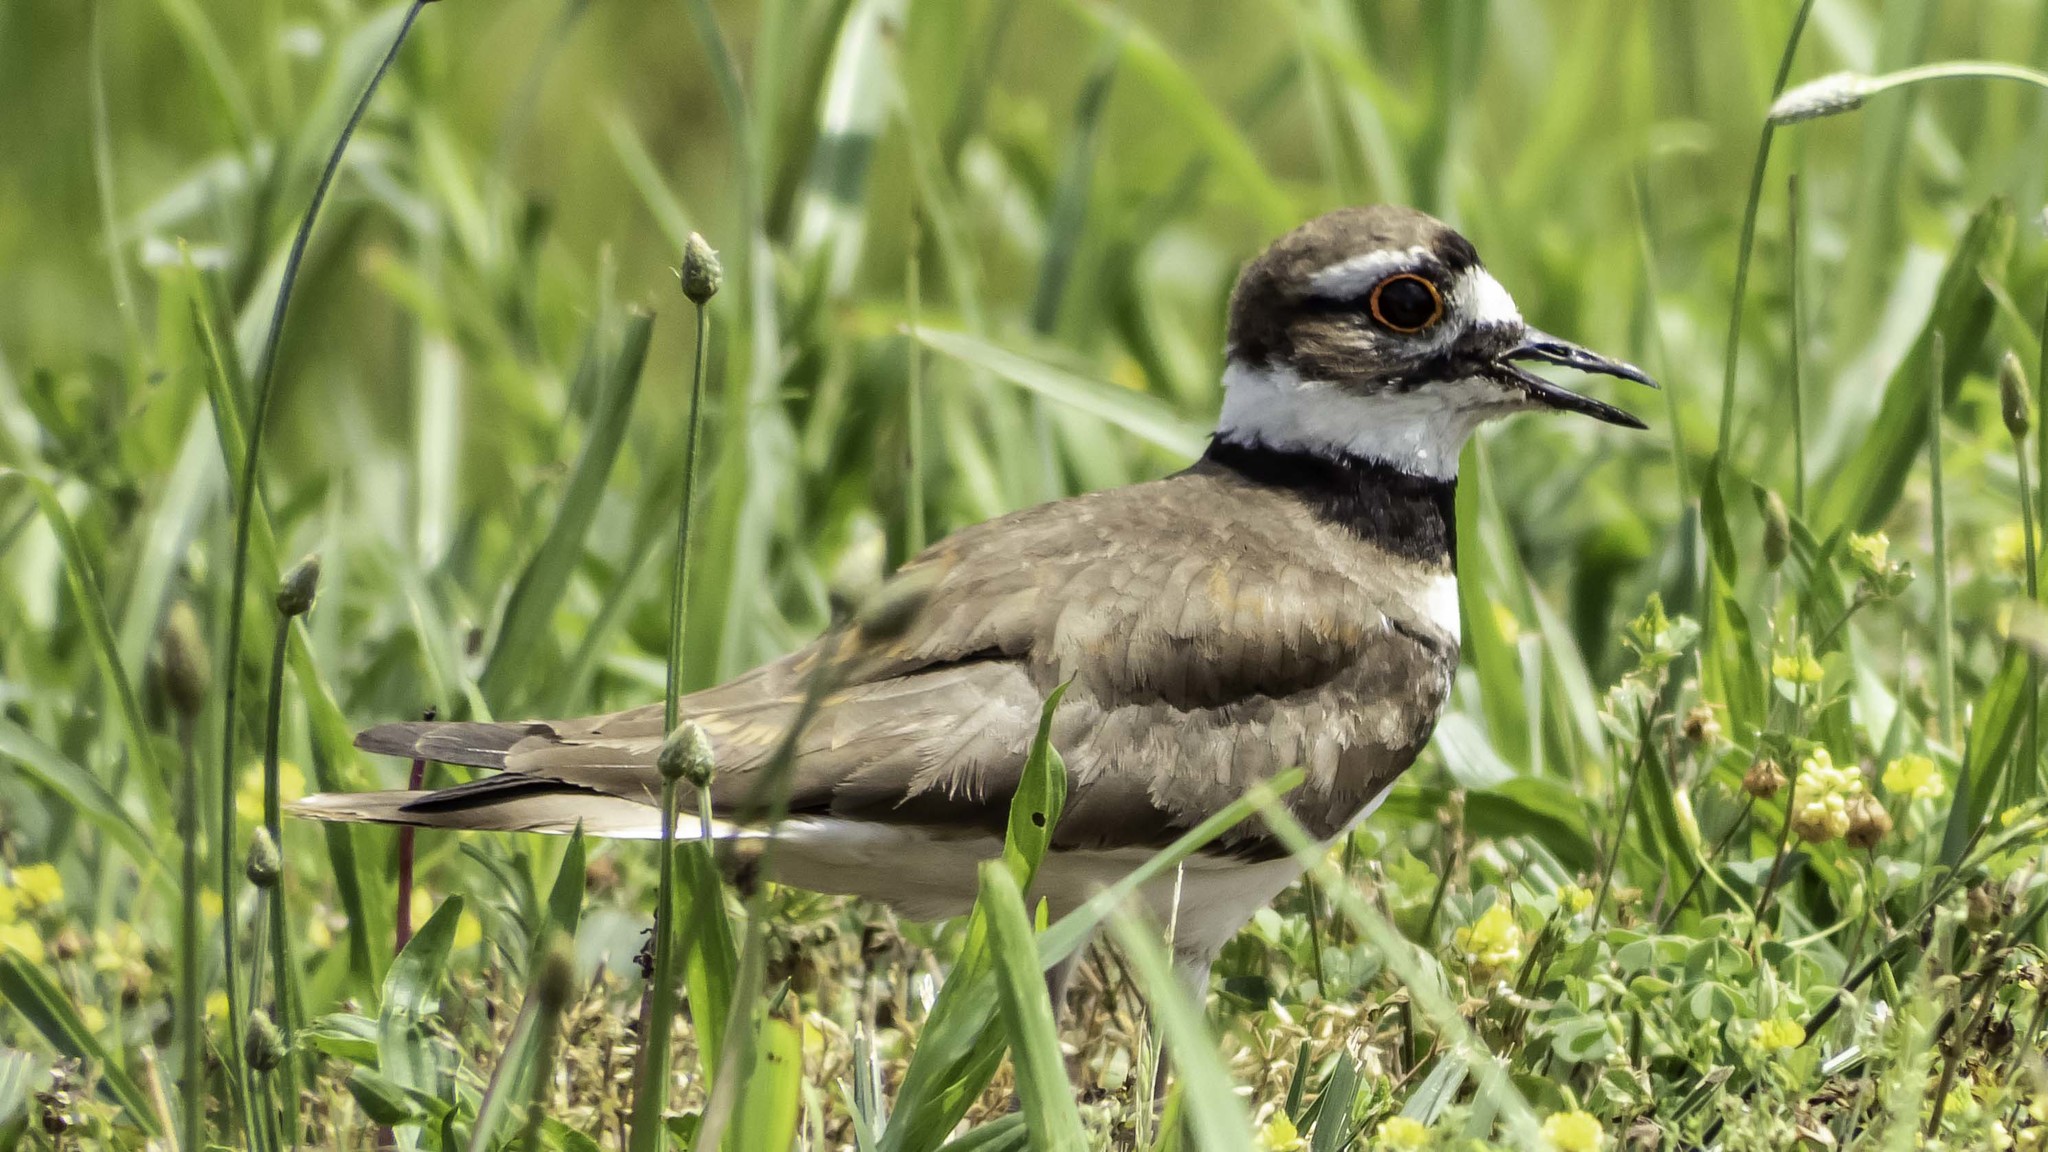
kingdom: Animalia
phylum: Chordata
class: Aves
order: Charadriiformes
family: Charadriidae
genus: Charadrius
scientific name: Charadrius vociferus
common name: Killdeer
